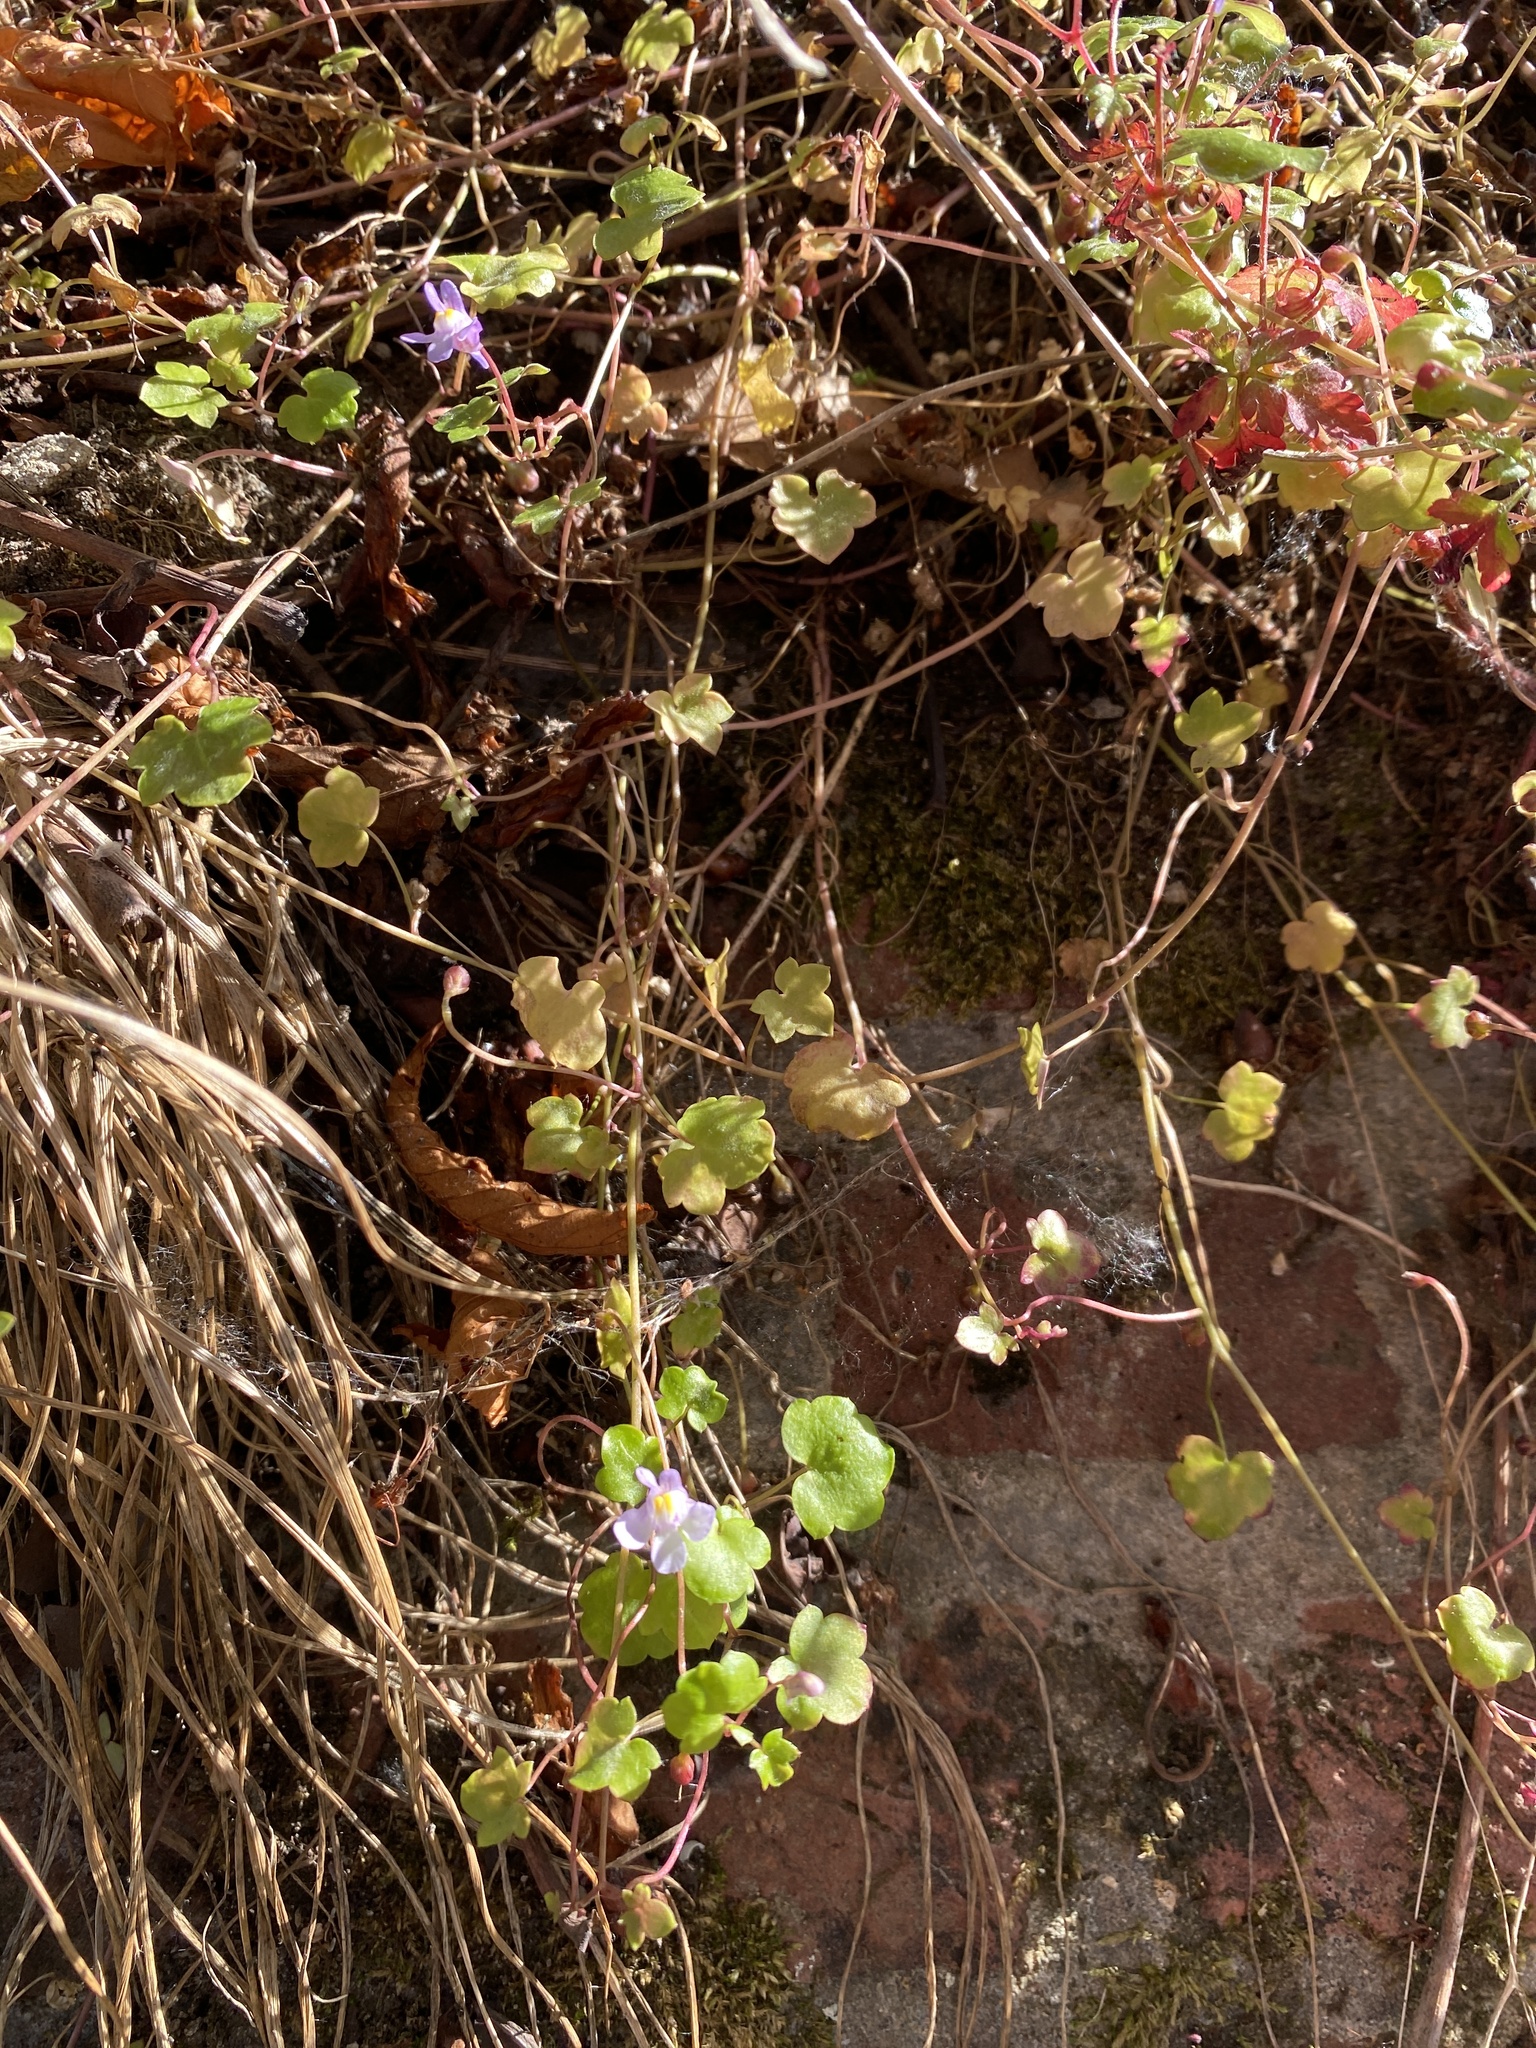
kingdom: Plantae
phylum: Tracheophyta
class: Magnoliopsida
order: Lamiales
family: Plantaginaceae
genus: Cymbalaria
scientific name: Cymbalaria muralis
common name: Ivy-leaved toadflax
